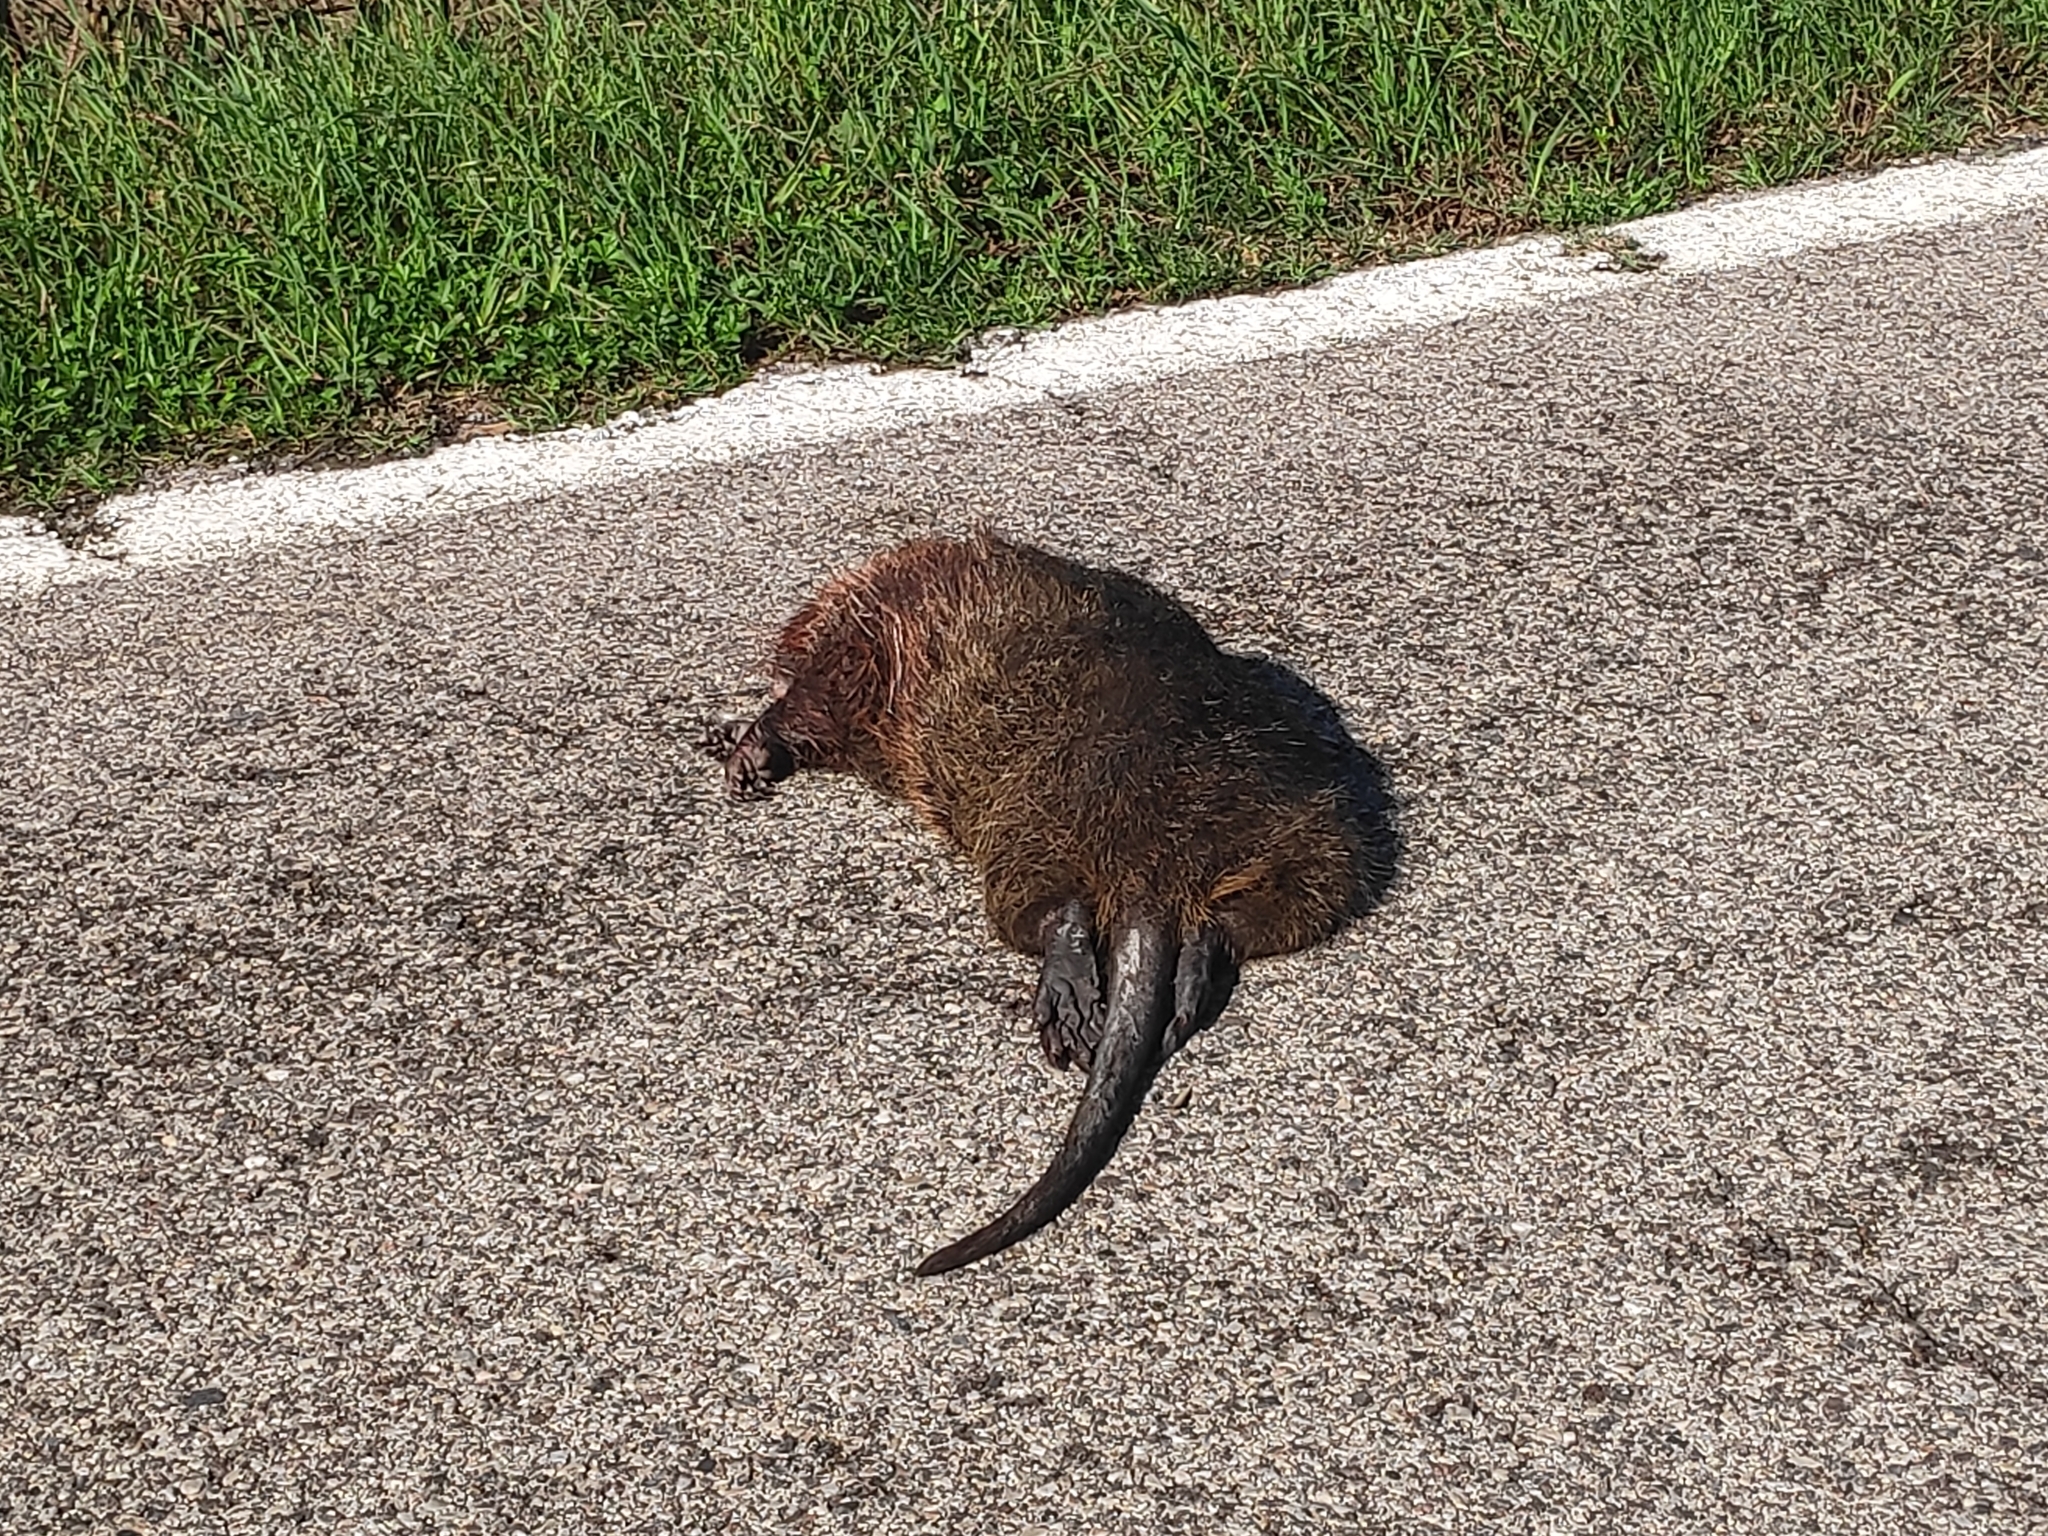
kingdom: Animalia
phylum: Chordata
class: Mammalia
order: Rodentia
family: Myocastoridae
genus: Myocastor
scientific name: Myocastor coypus
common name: Coypu
